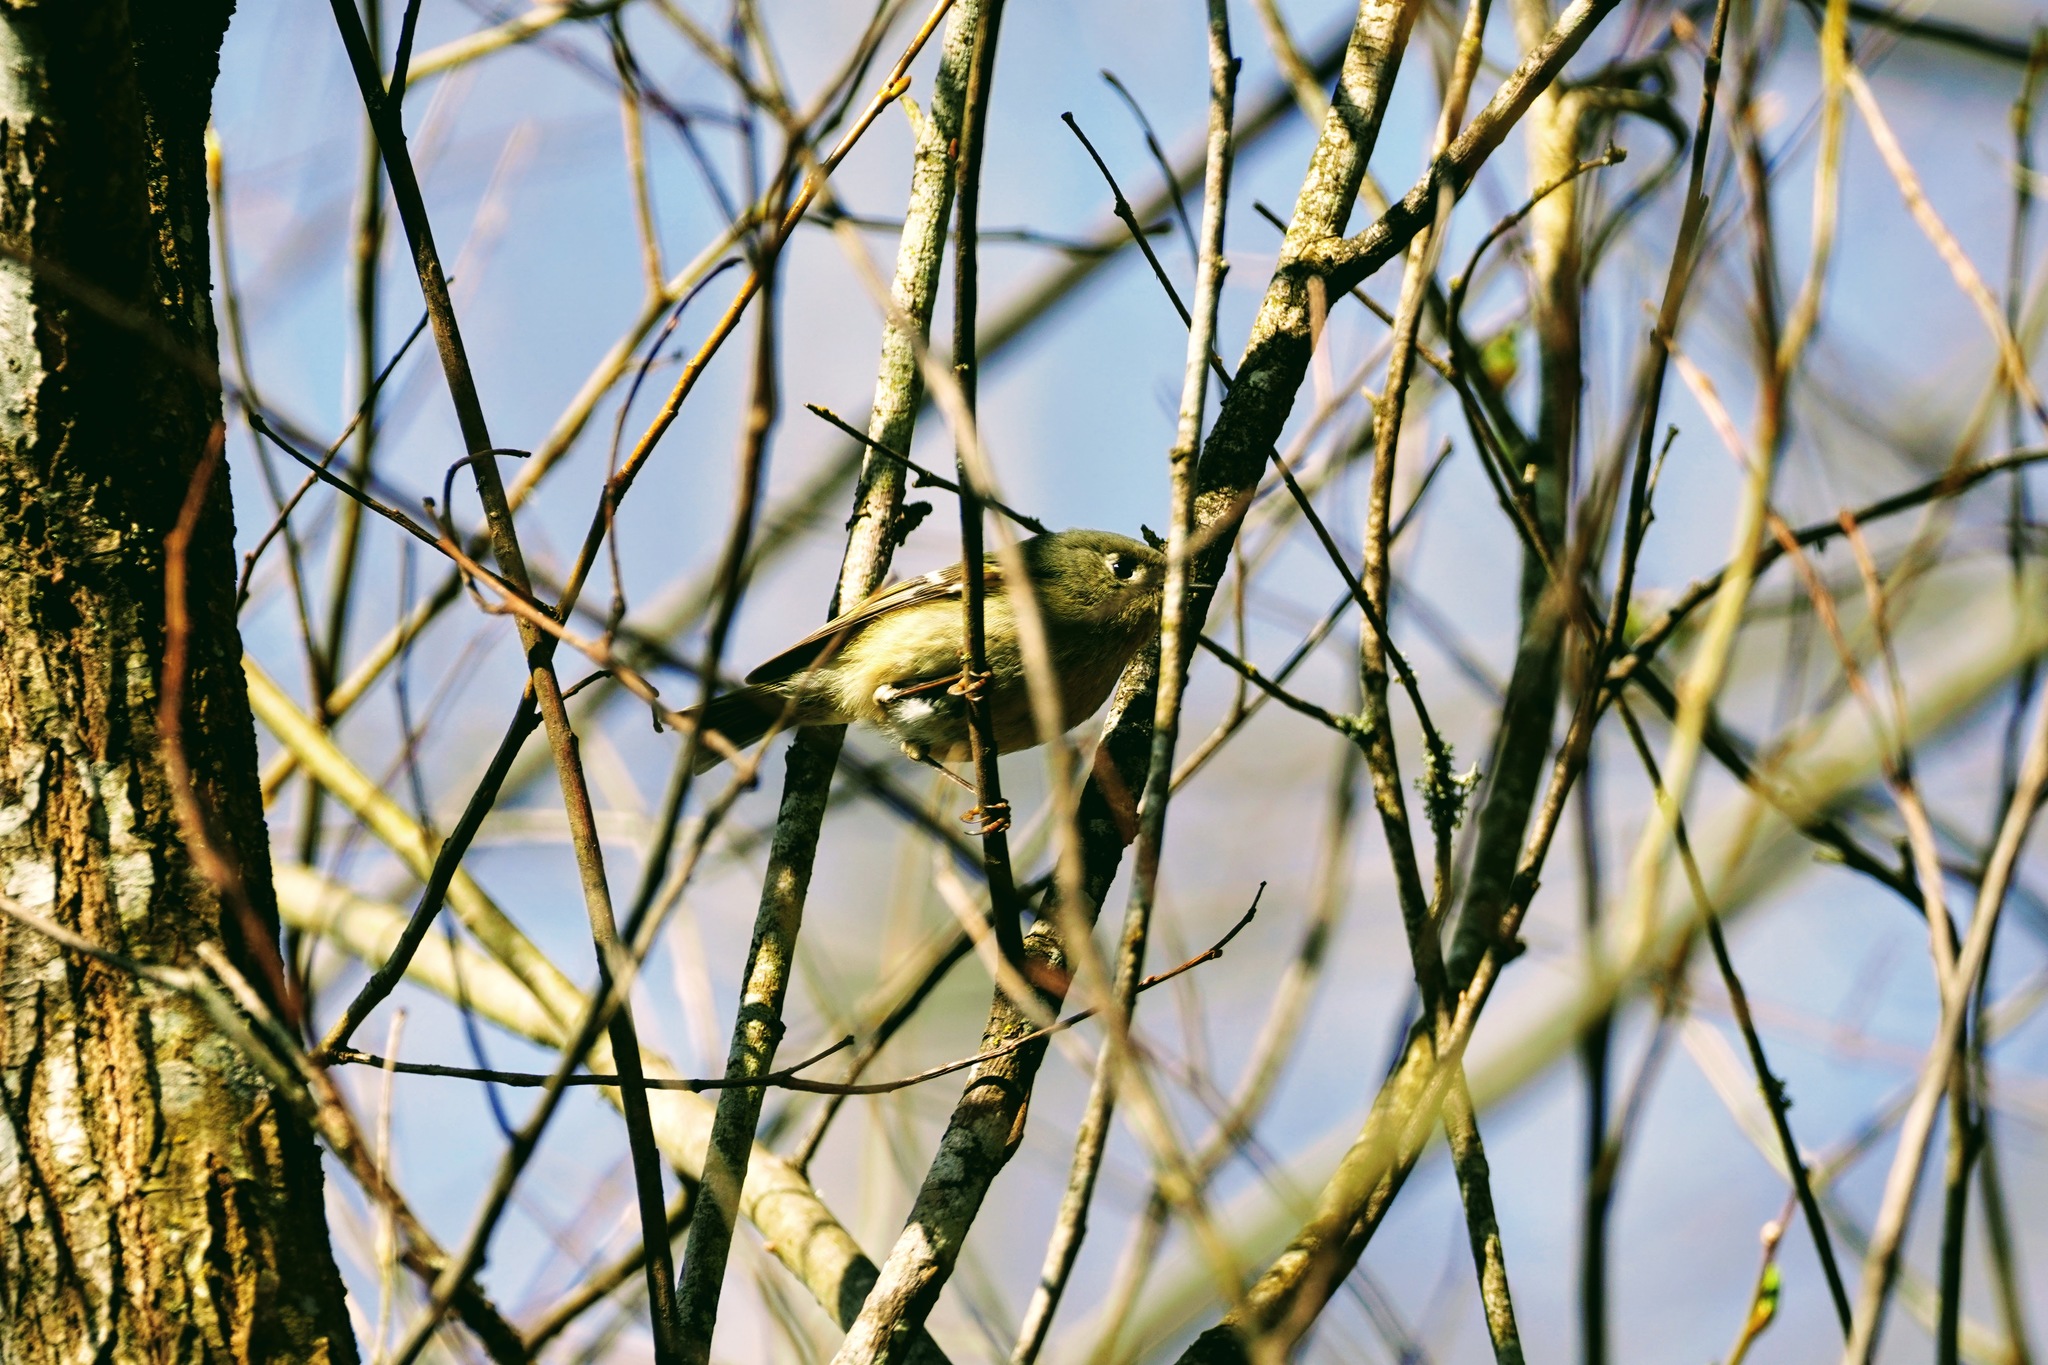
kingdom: Animalia
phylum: Chordata
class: Aves
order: Passeriformes
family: Regulidae
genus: Regulus
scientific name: Regulus calendula
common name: Ruby-crowned kinglet
